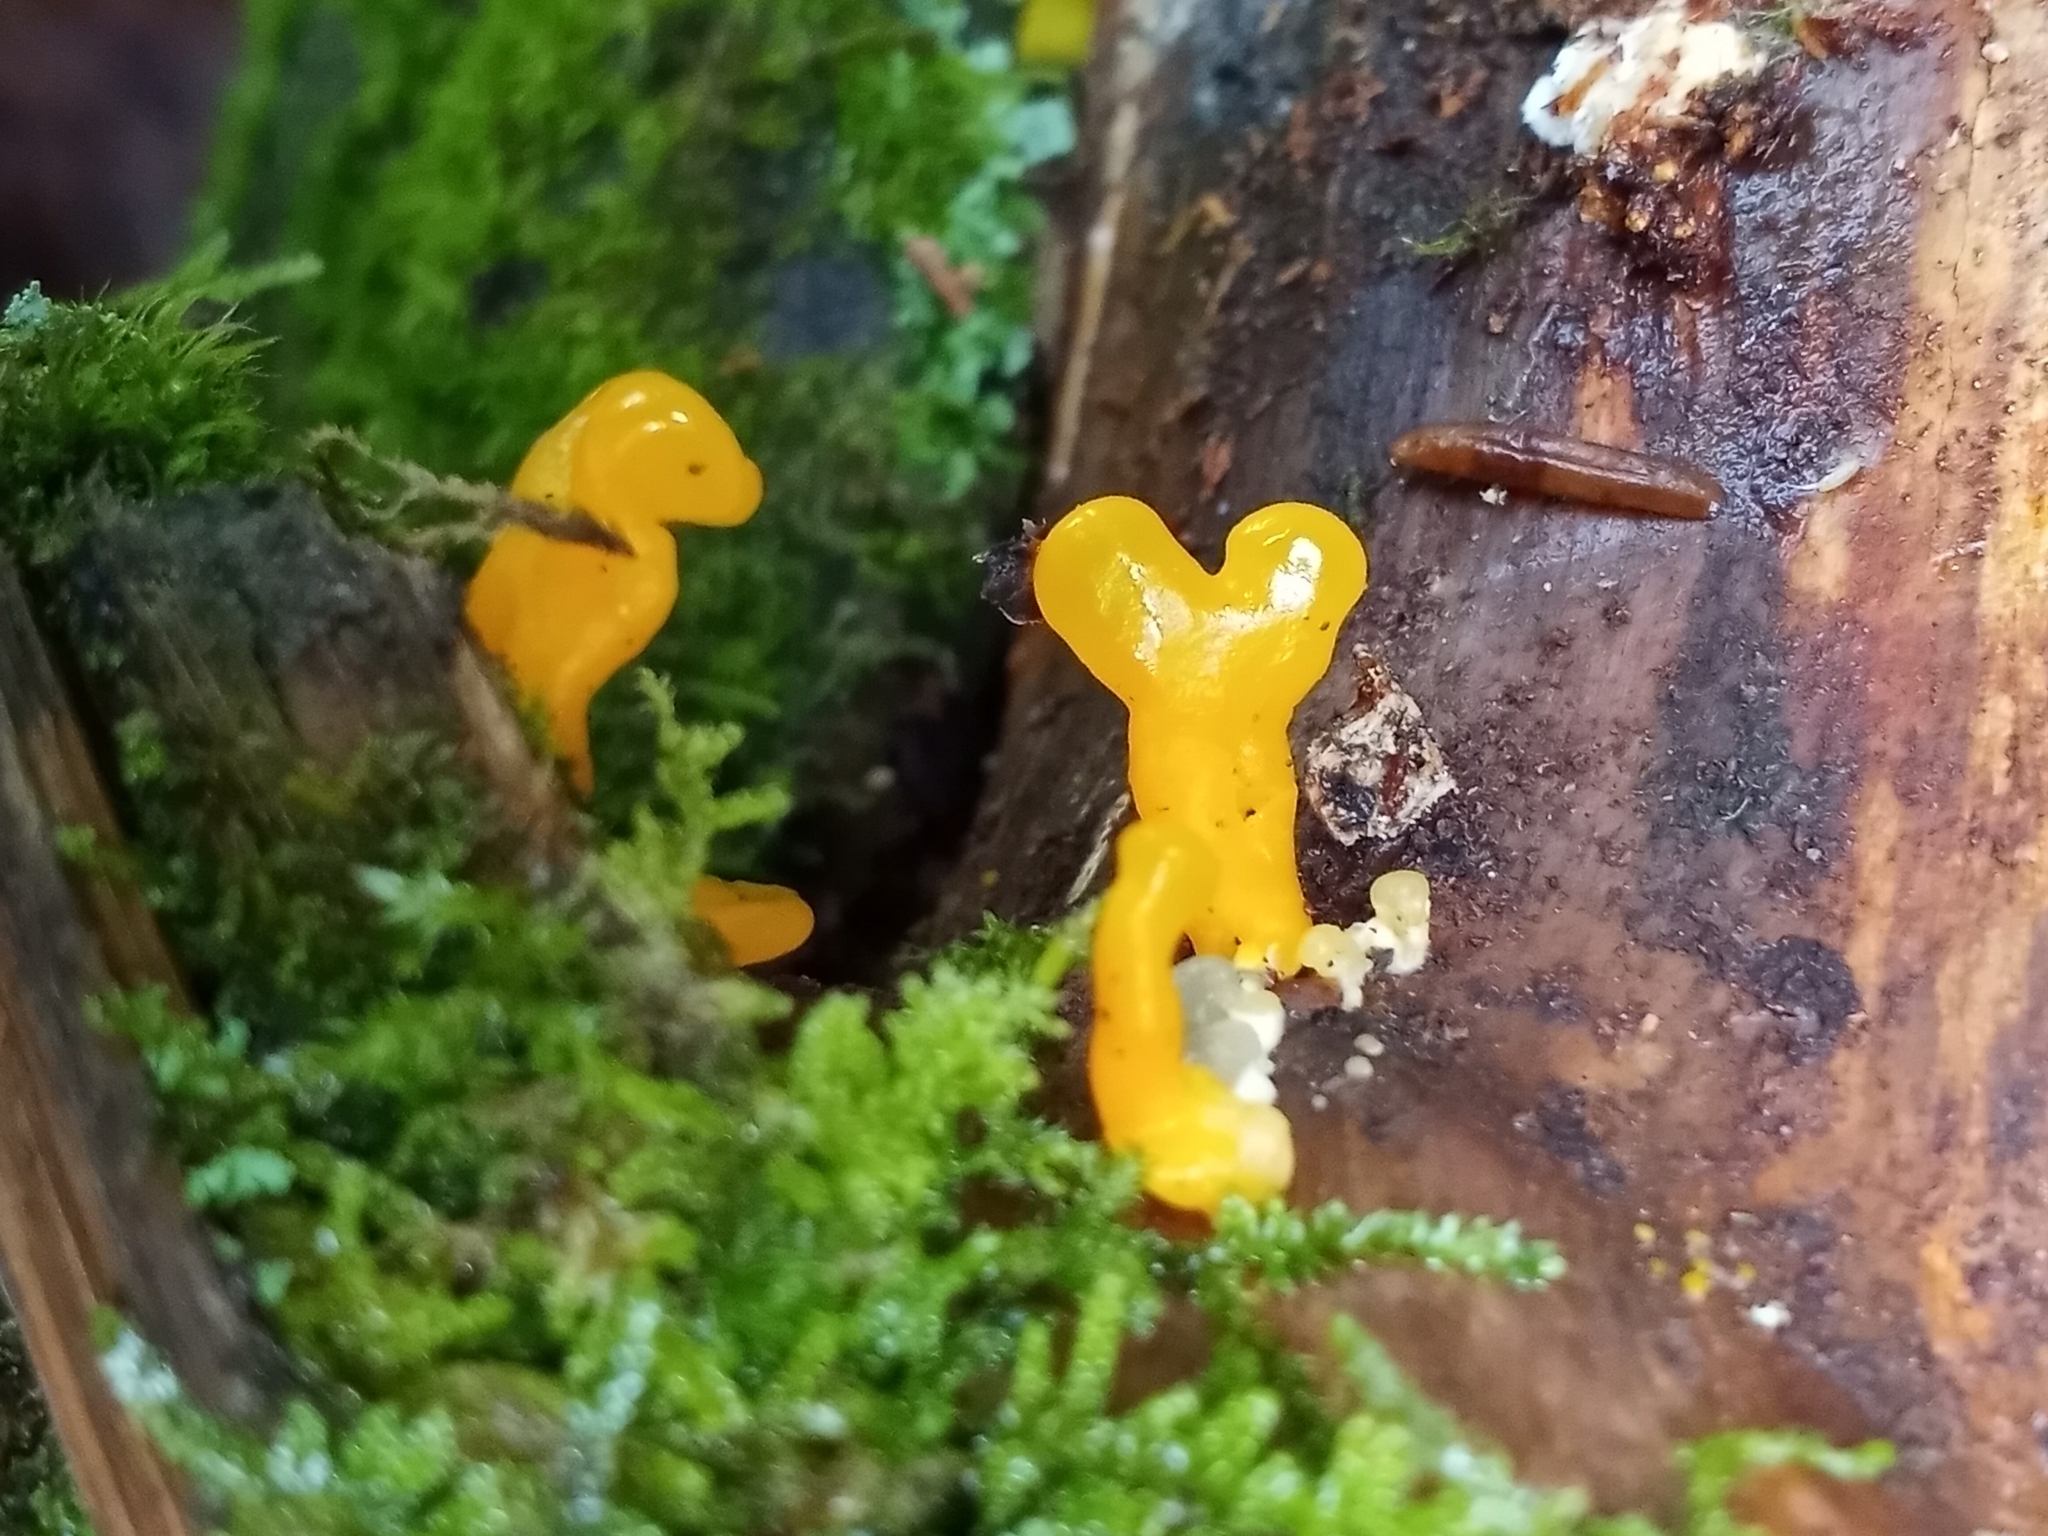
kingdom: Fungi
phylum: Basidiomycota
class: Dacrymycetes
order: Dacrymycetales
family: Dacrymycetaceae
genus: Dacrymyces
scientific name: Dacrymyces spathularius
